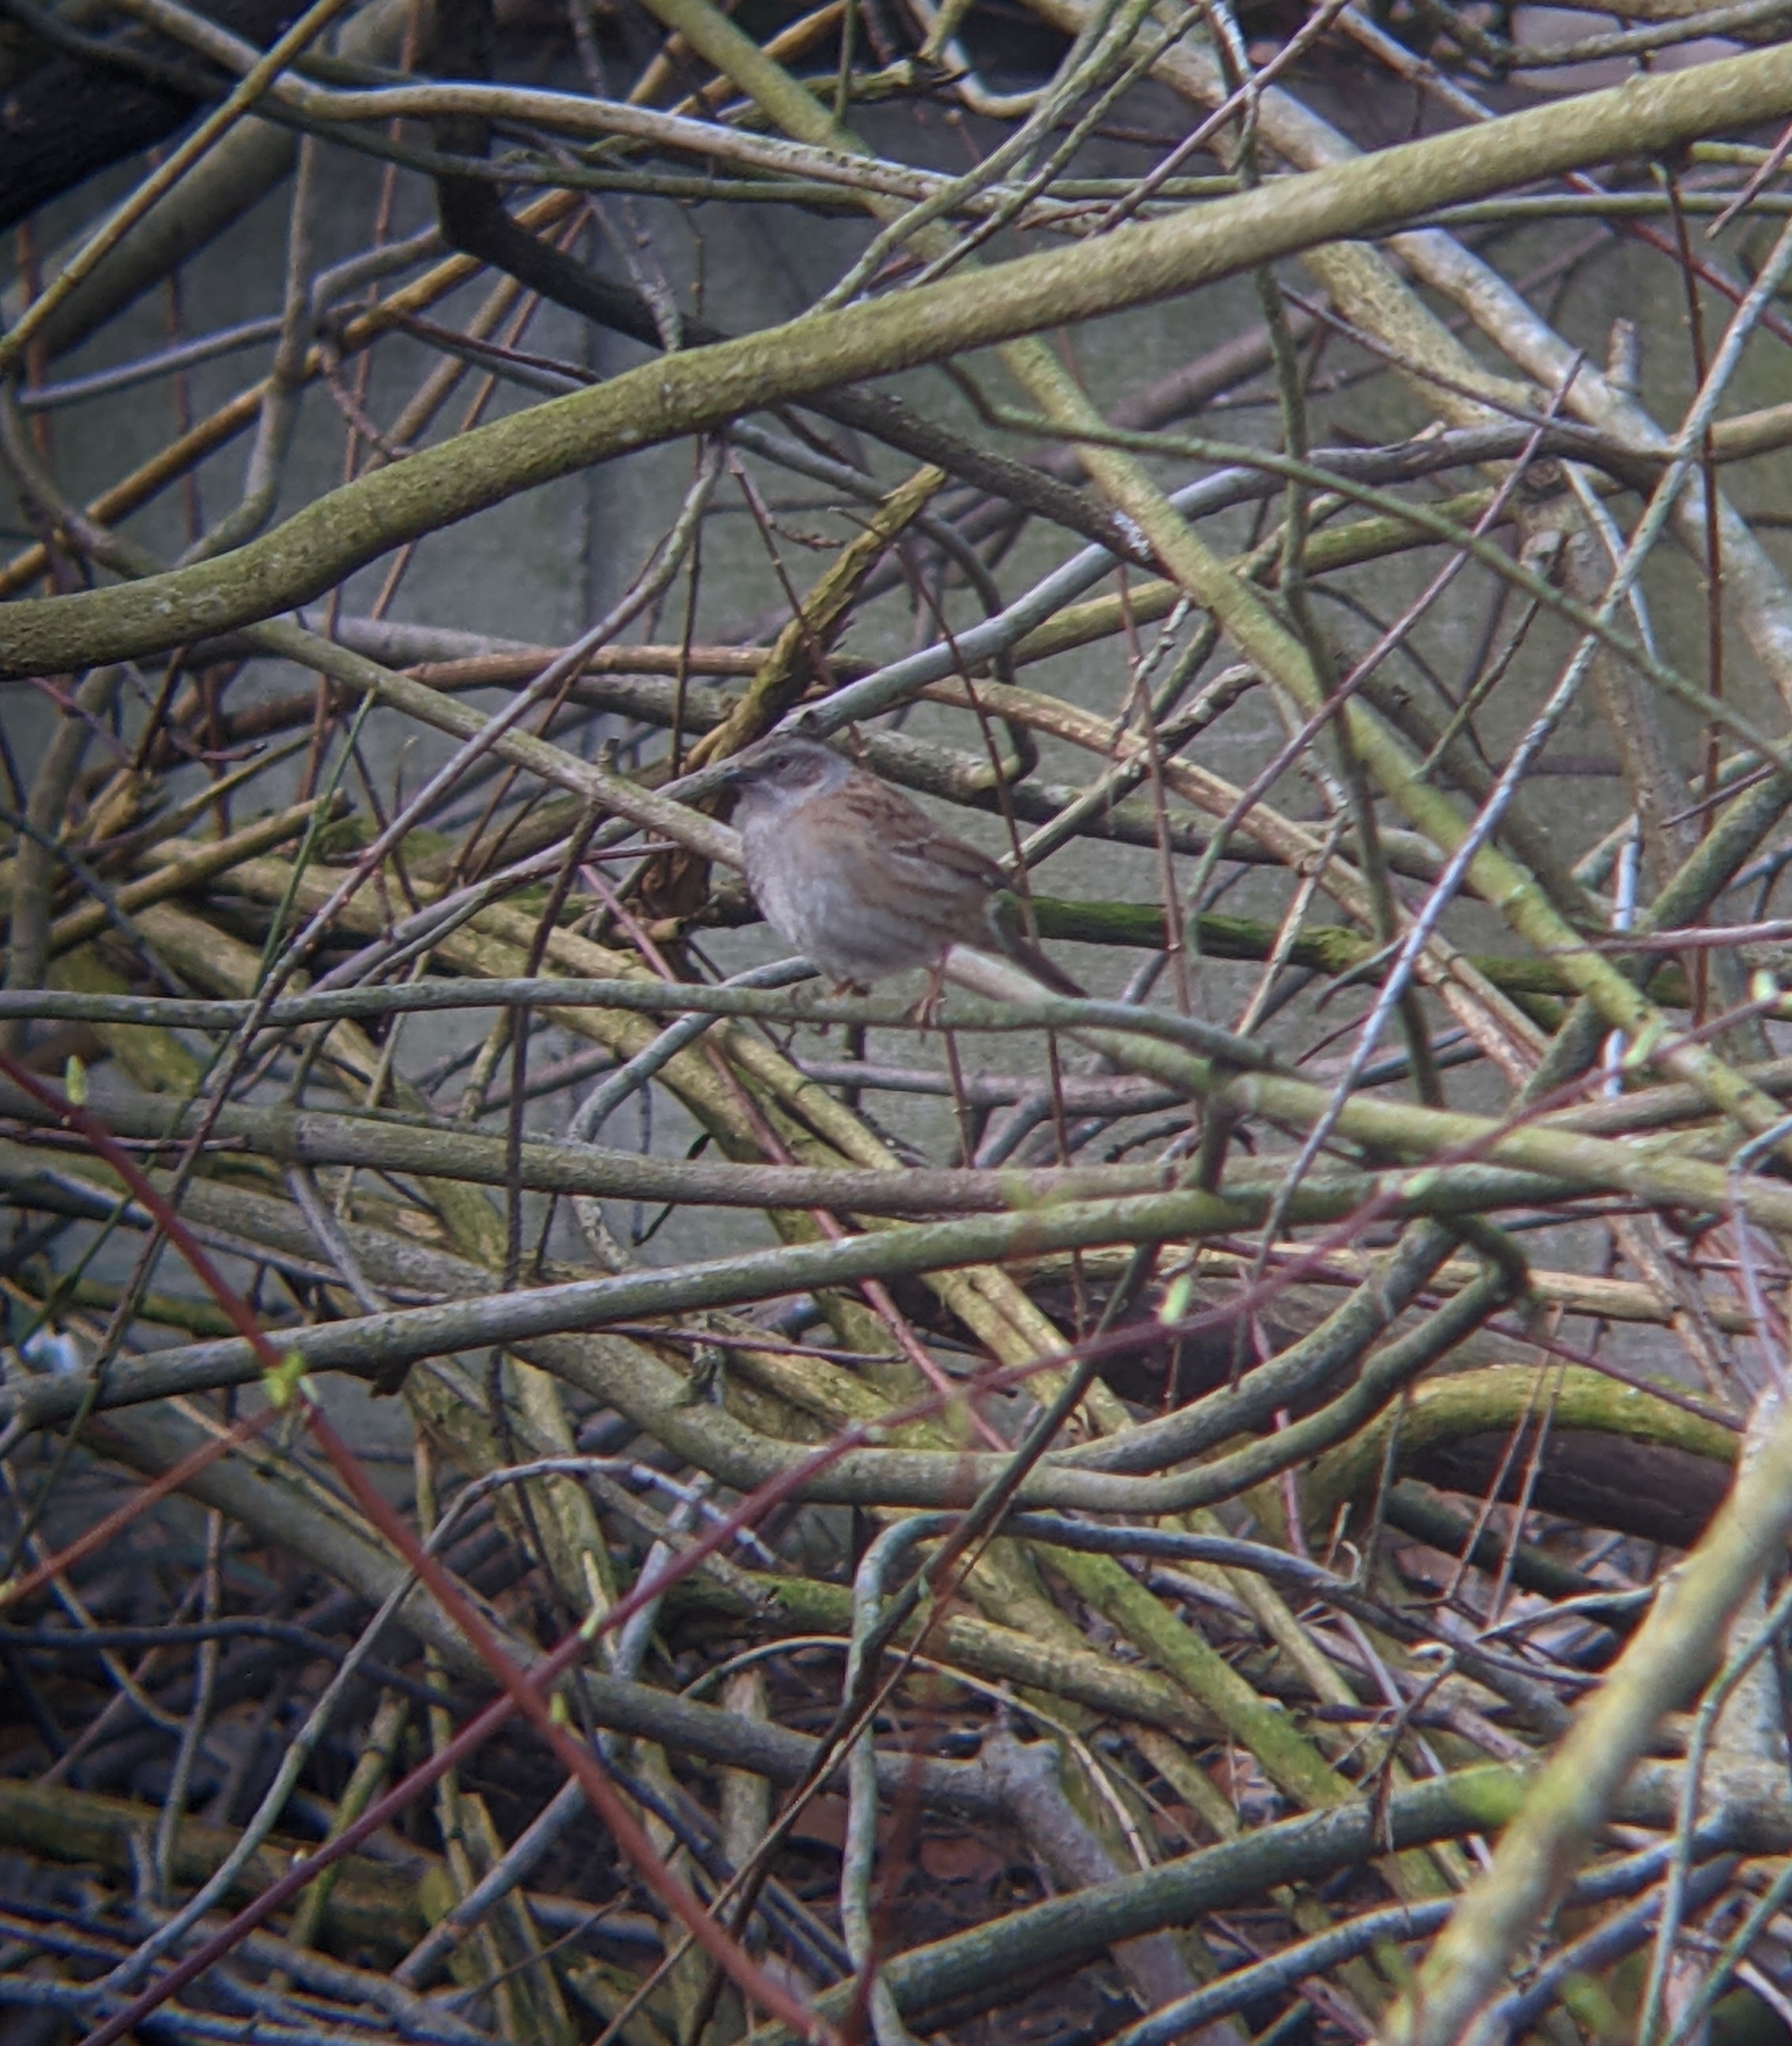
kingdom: Animalia
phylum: Chordata
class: Aves
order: Passeriformes
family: Prunellidae
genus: Prunella
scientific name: Prunella modularis
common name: Dunnock
